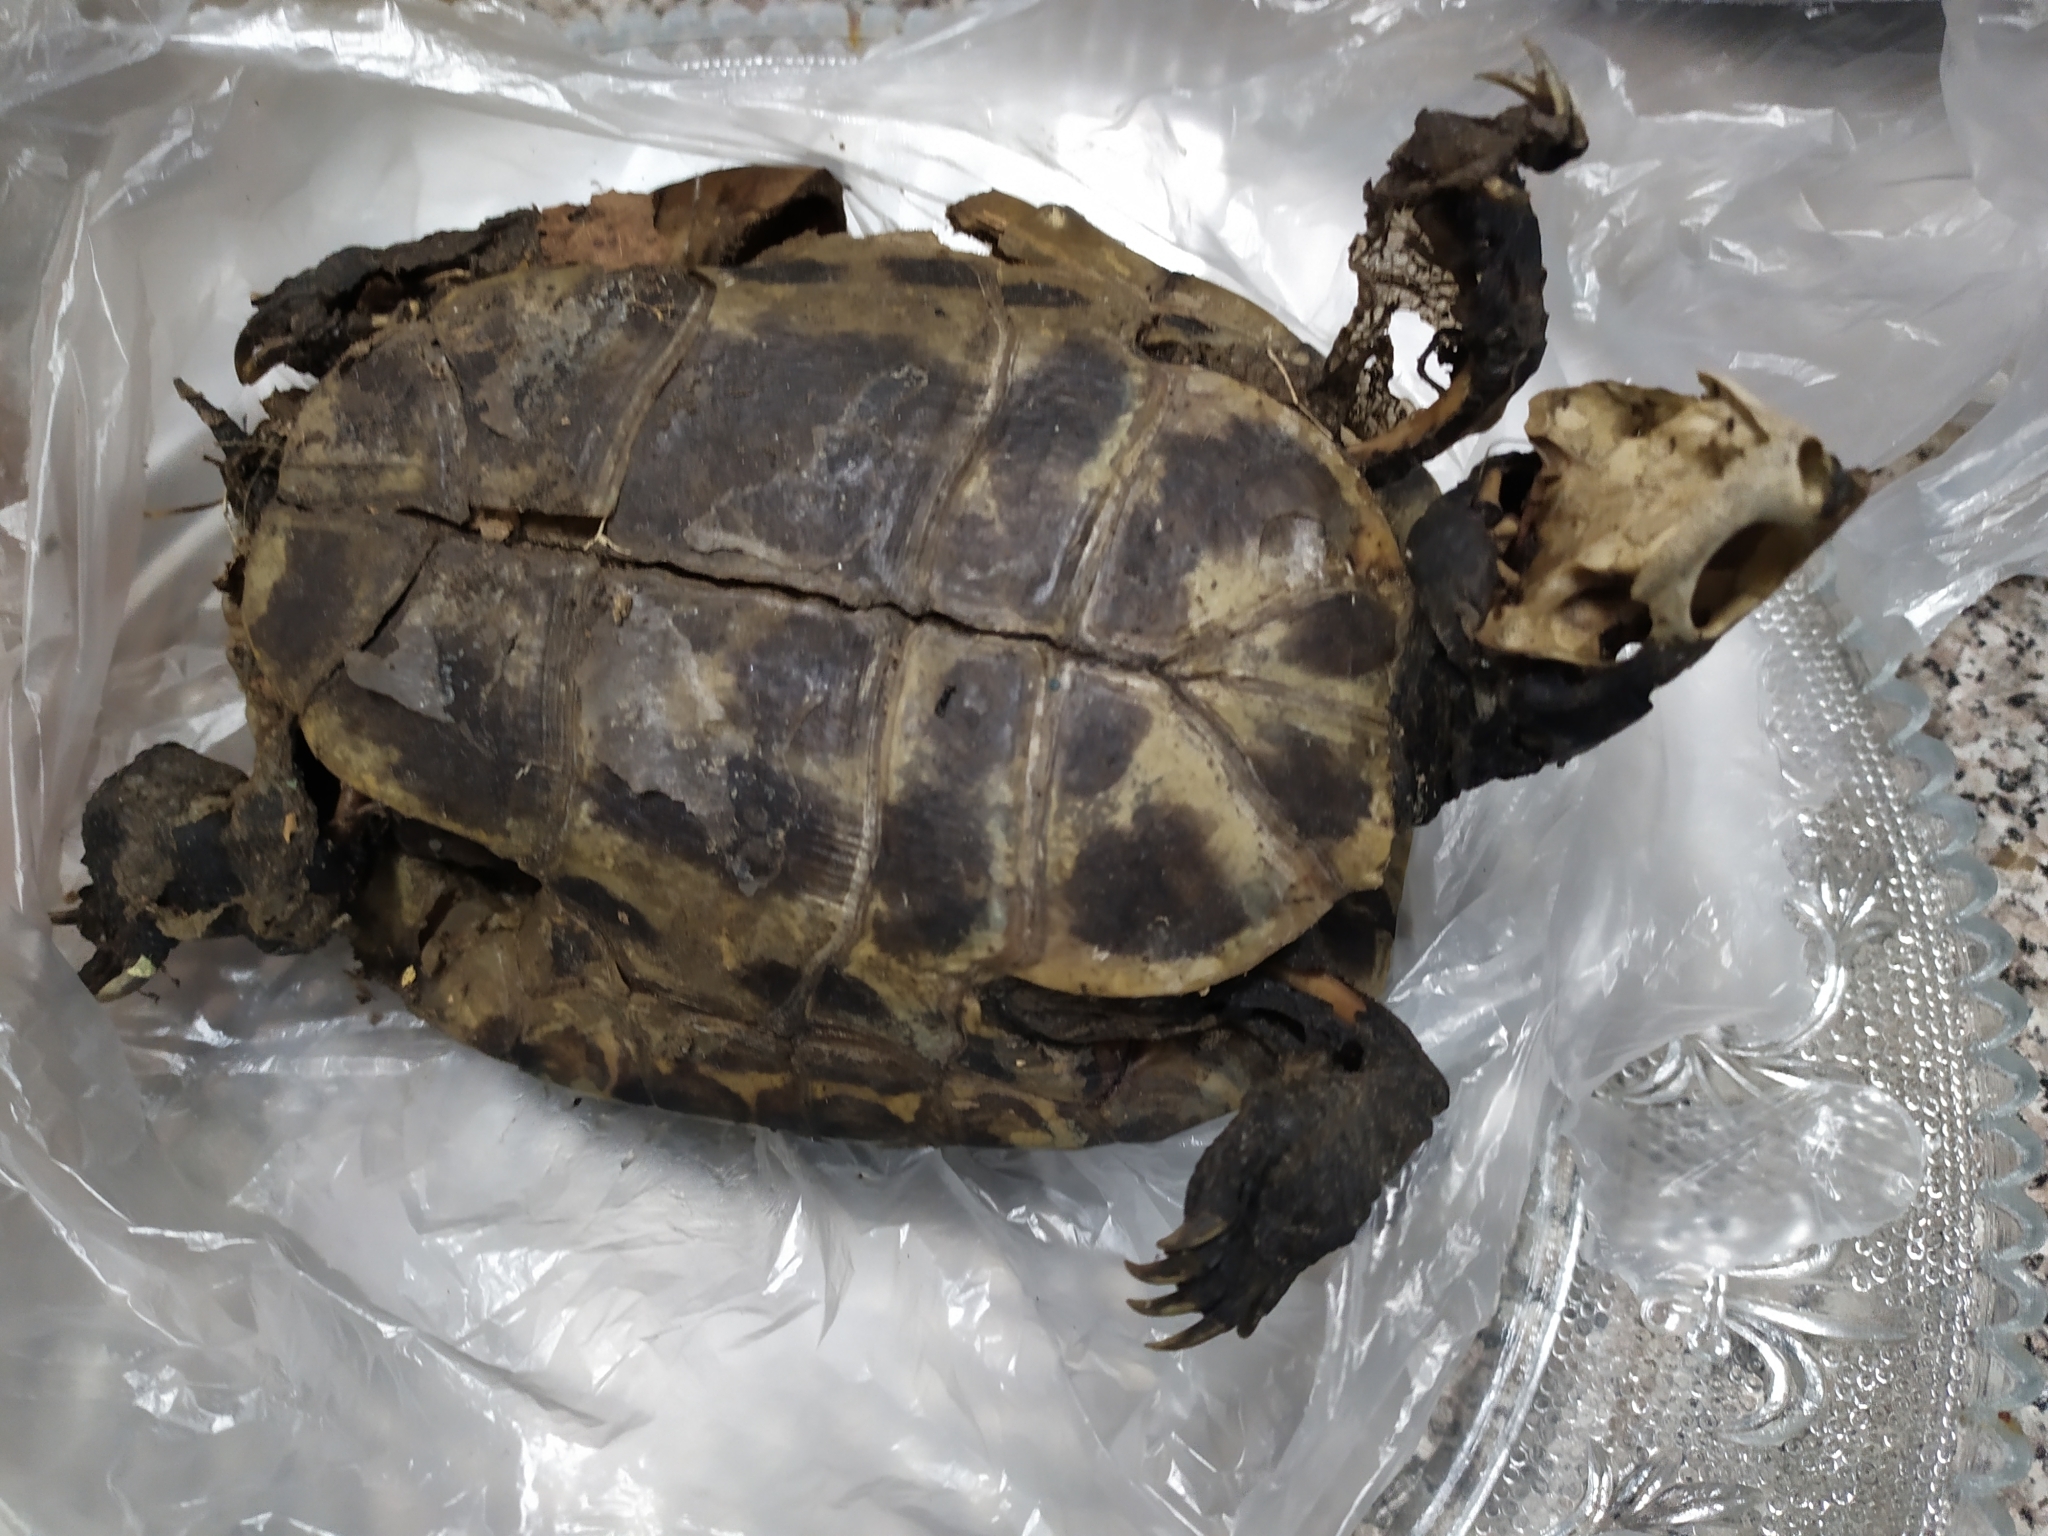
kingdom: Animalia
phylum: Chordata
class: Testudines
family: Emydidae
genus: Trachemys
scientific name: Trachemys scripta
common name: Slider
